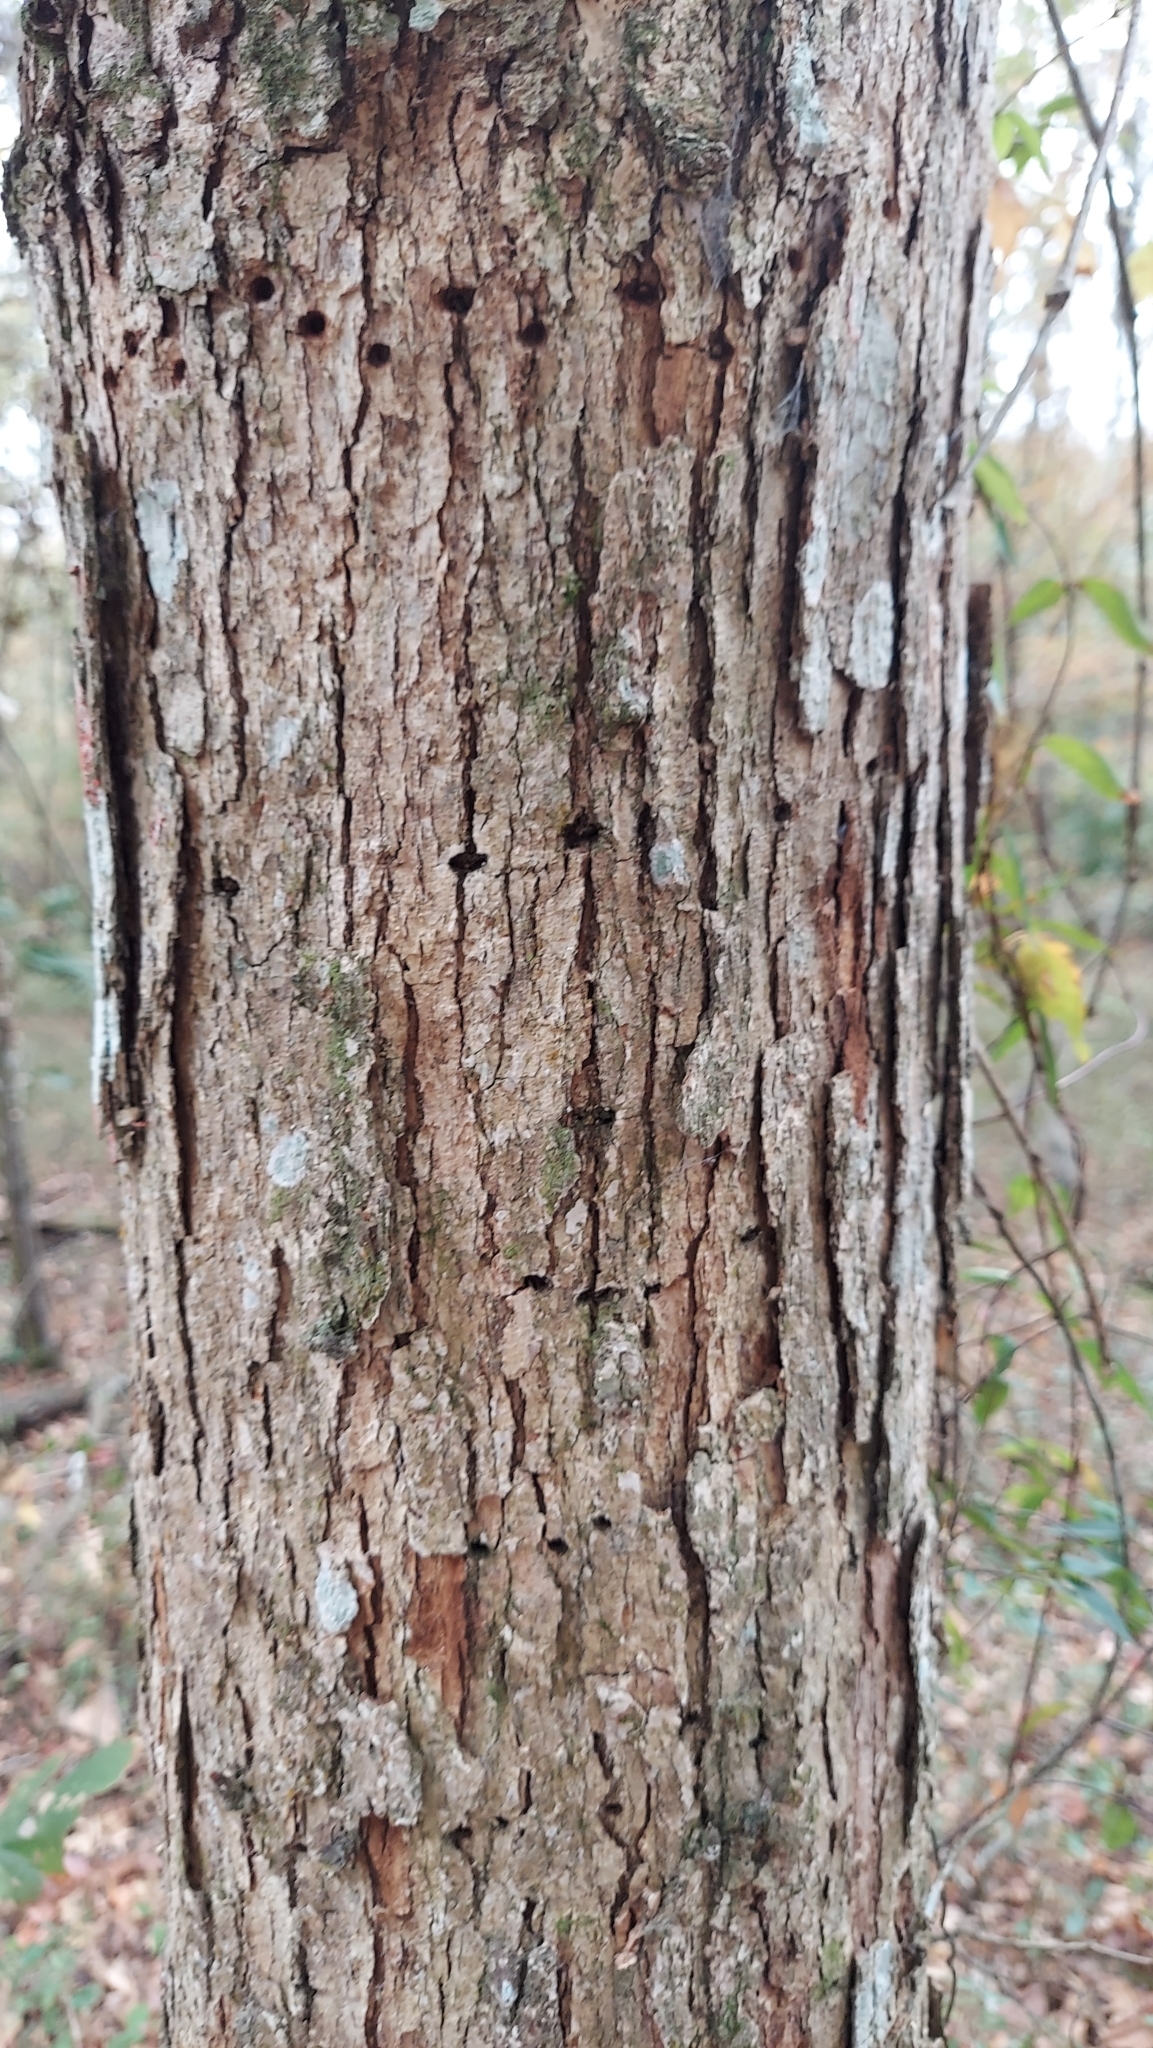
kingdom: Plantae
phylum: Tracheophyta
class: Magnoliopsida
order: Fagales
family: Fagaceae
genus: Quercus
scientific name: Quercus michauxii
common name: Swamp chestnut oak
